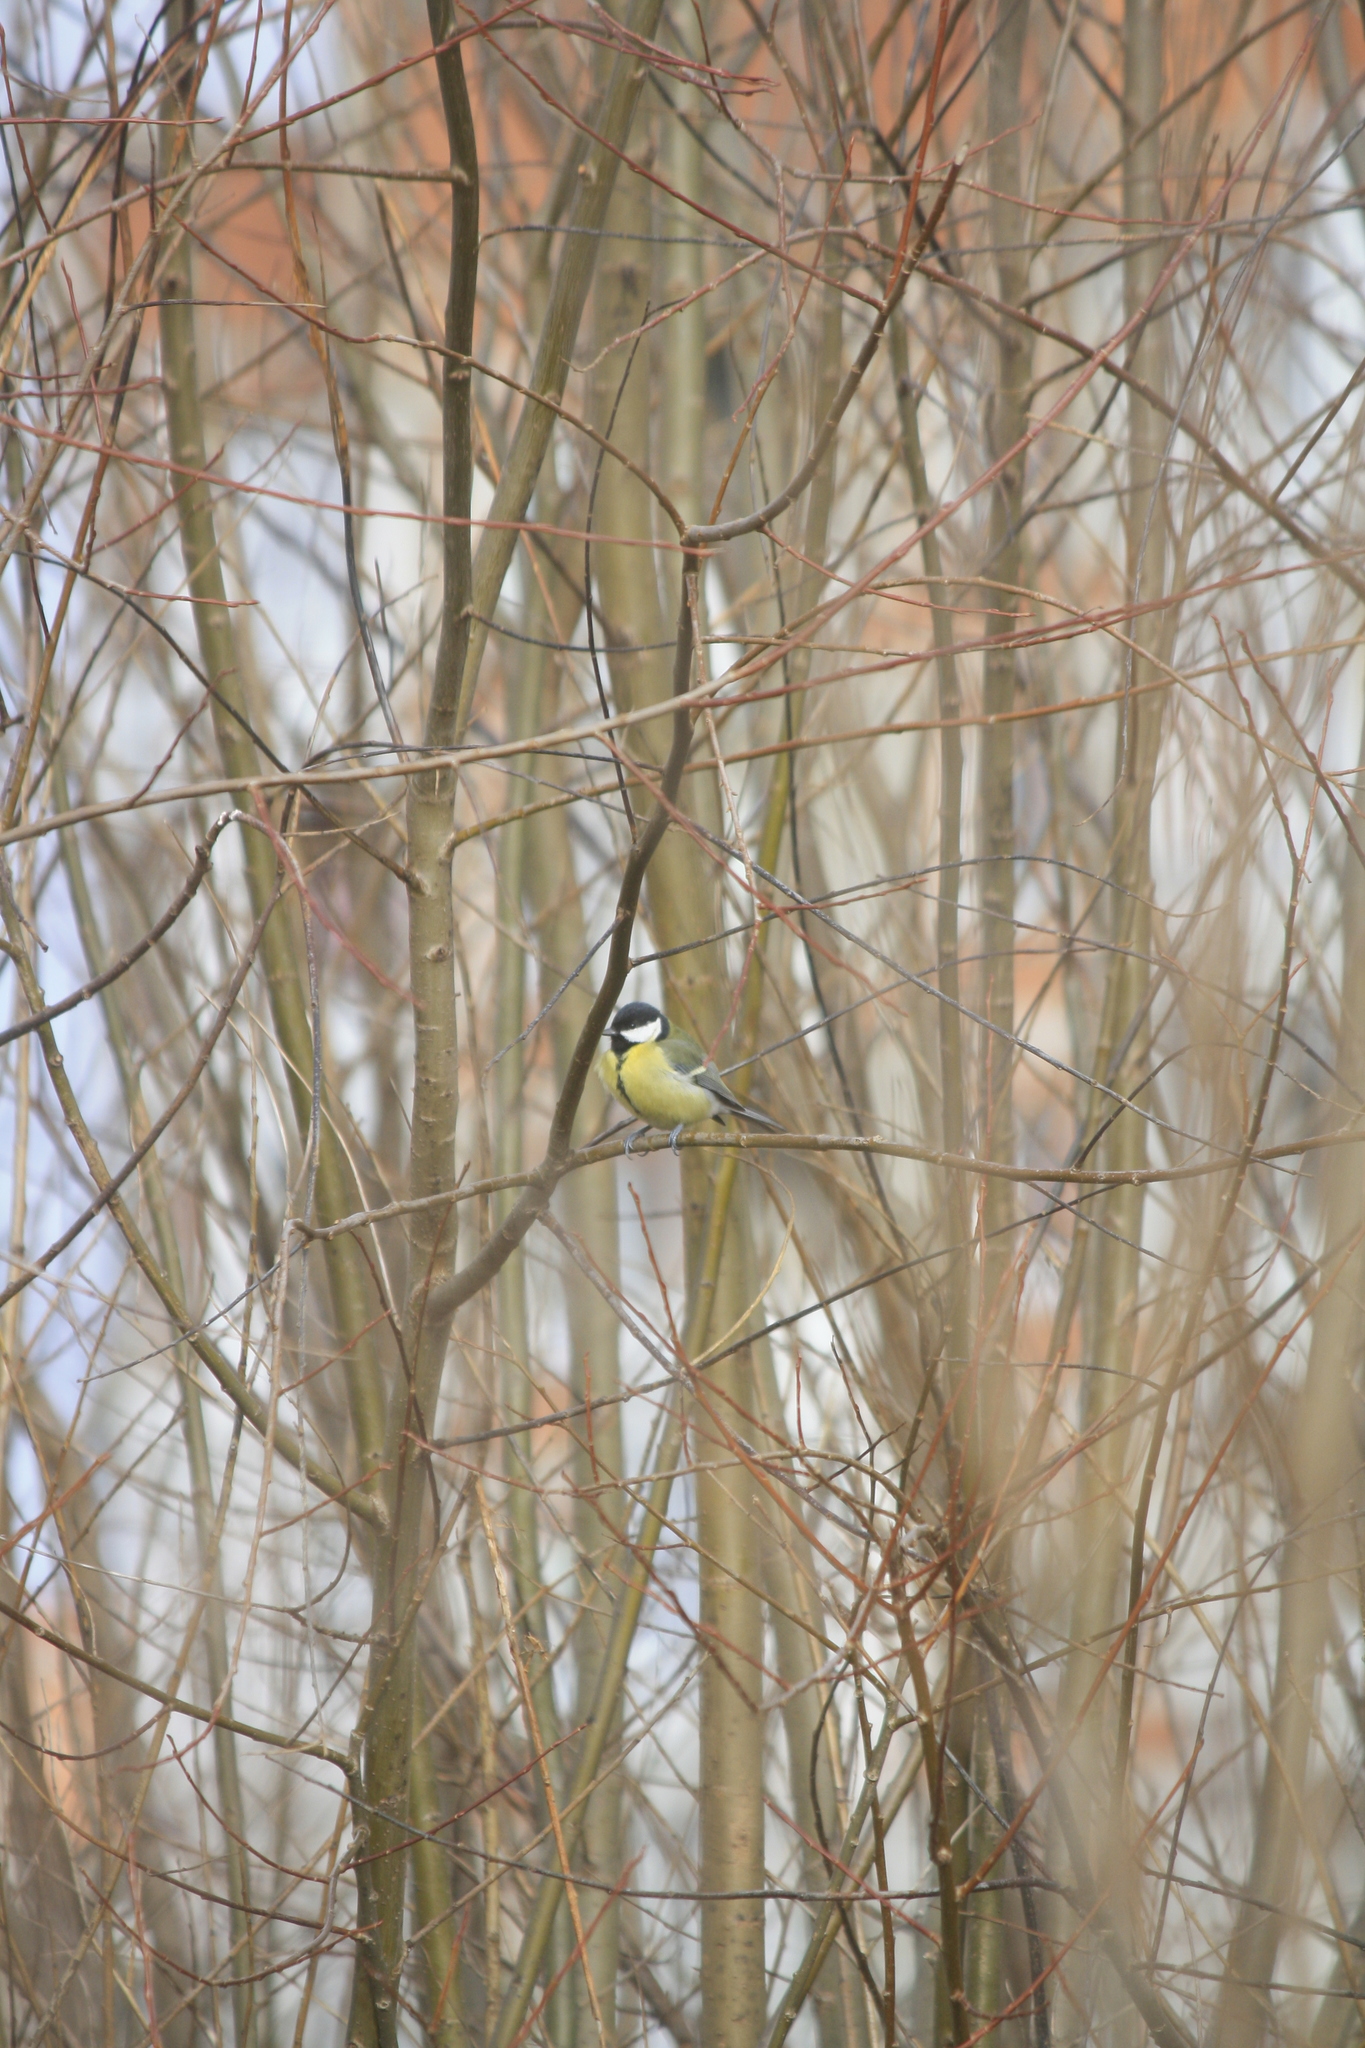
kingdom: Animalia
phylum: Chordata
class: Aves
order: Passeriformes
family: Paridae
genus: Parus
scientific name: Parus major
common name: Great tit
